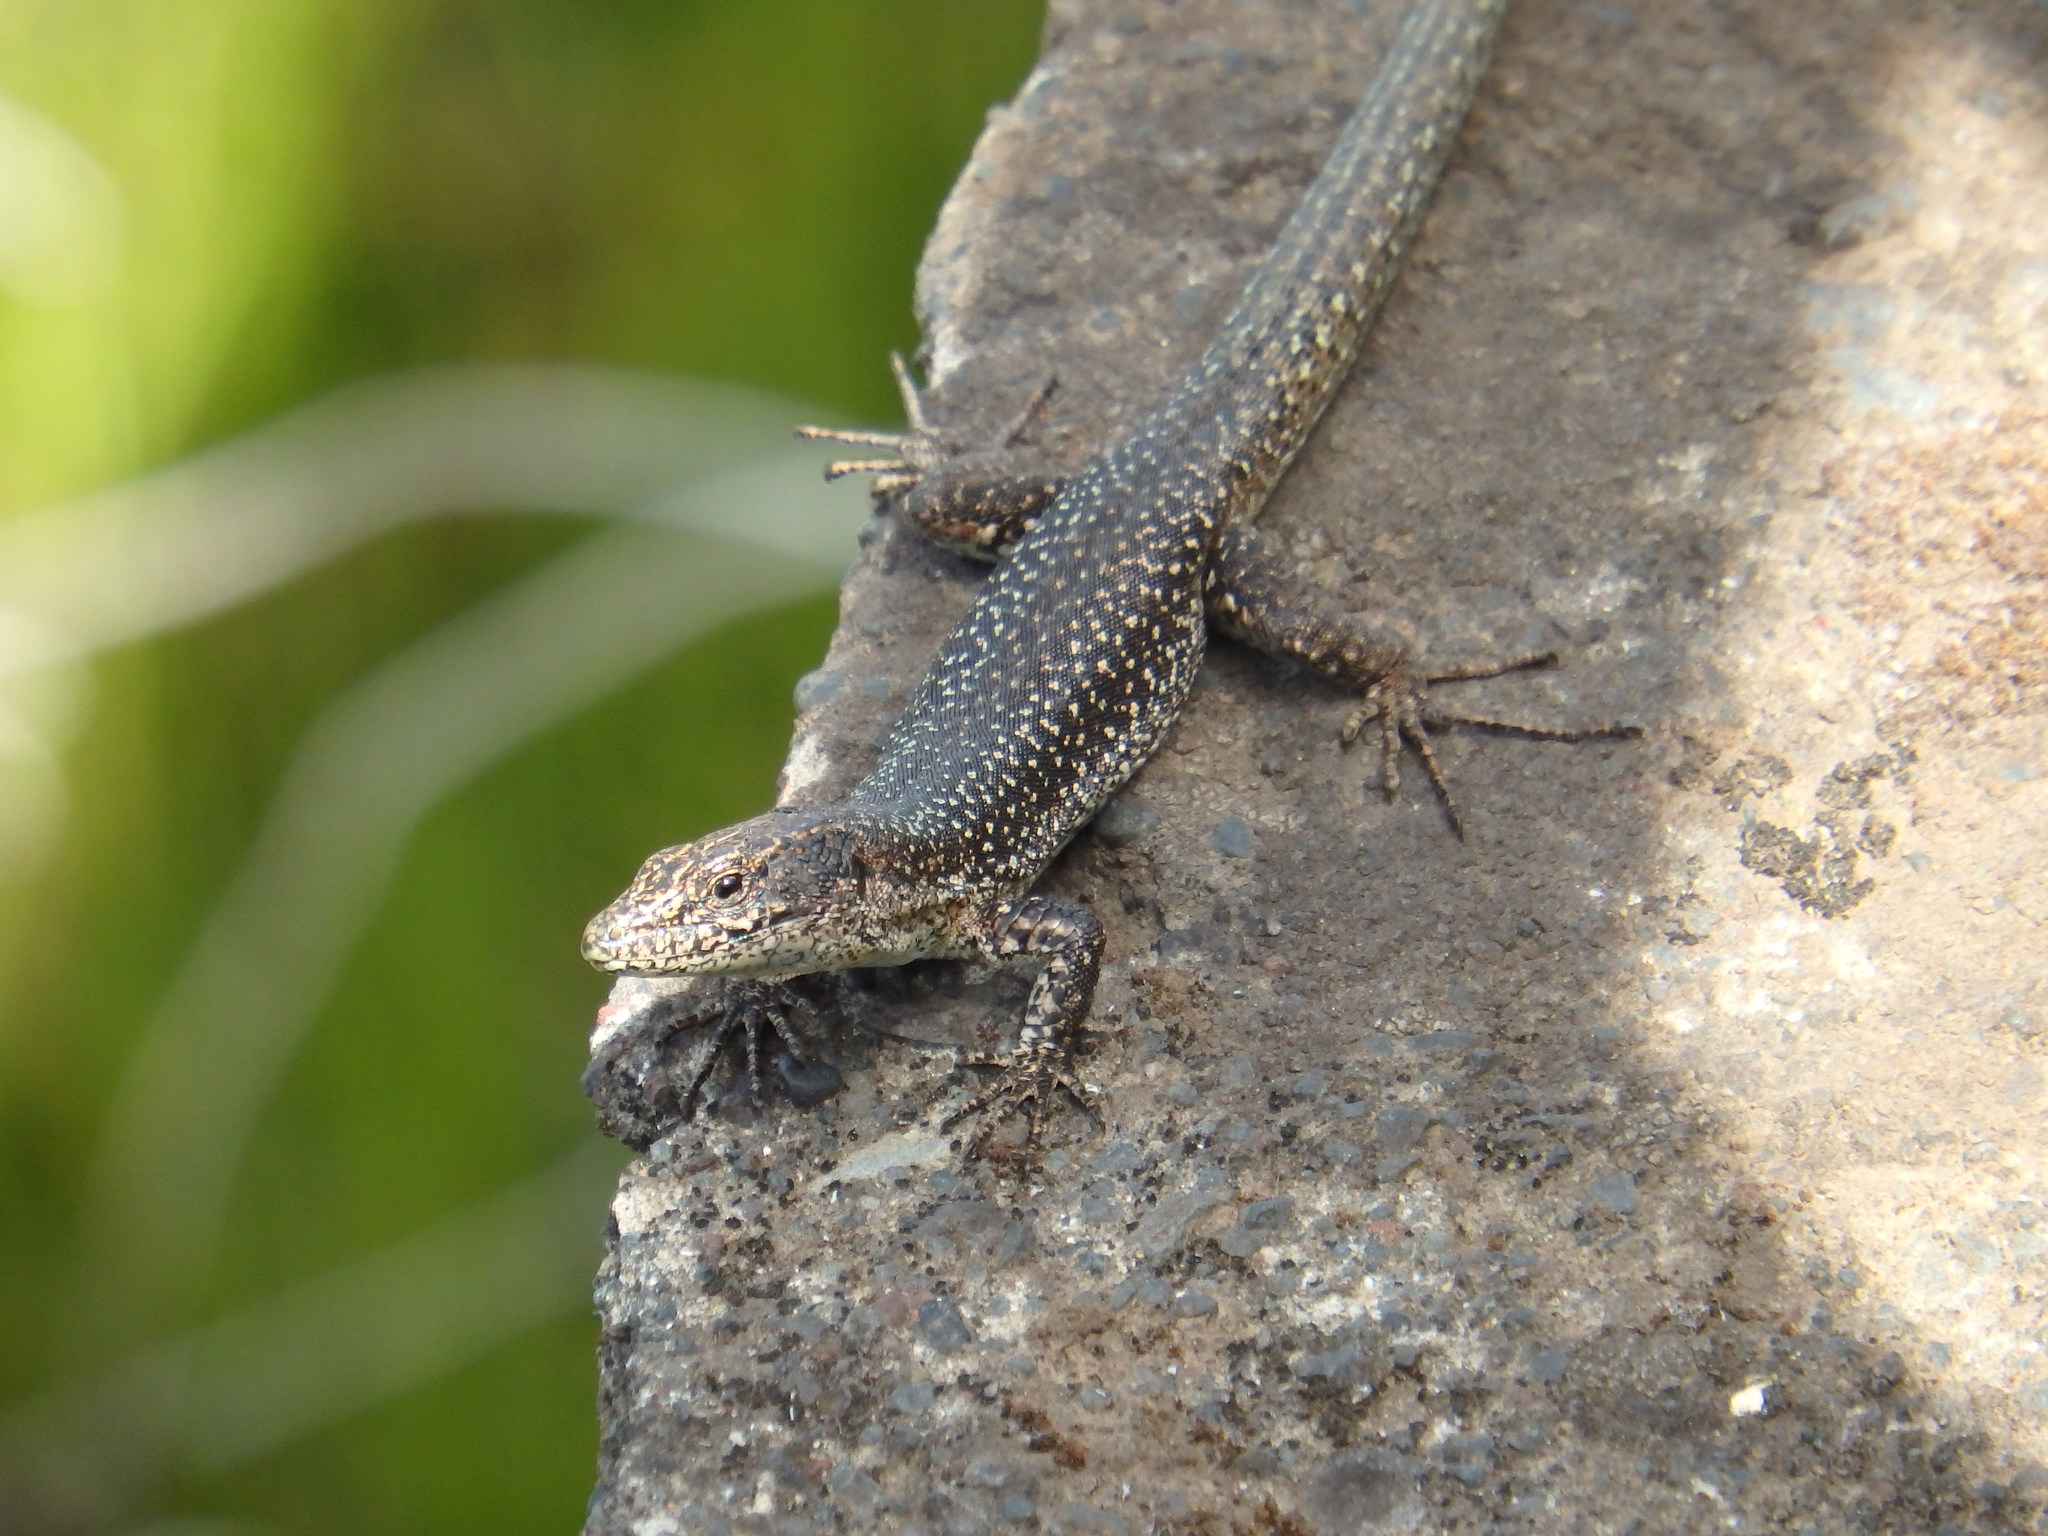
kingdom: Animalia
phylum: Chordata
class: Squamata
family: Lacertidae
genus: Teira
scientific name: Teira dugesii
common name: Madeira lizard
